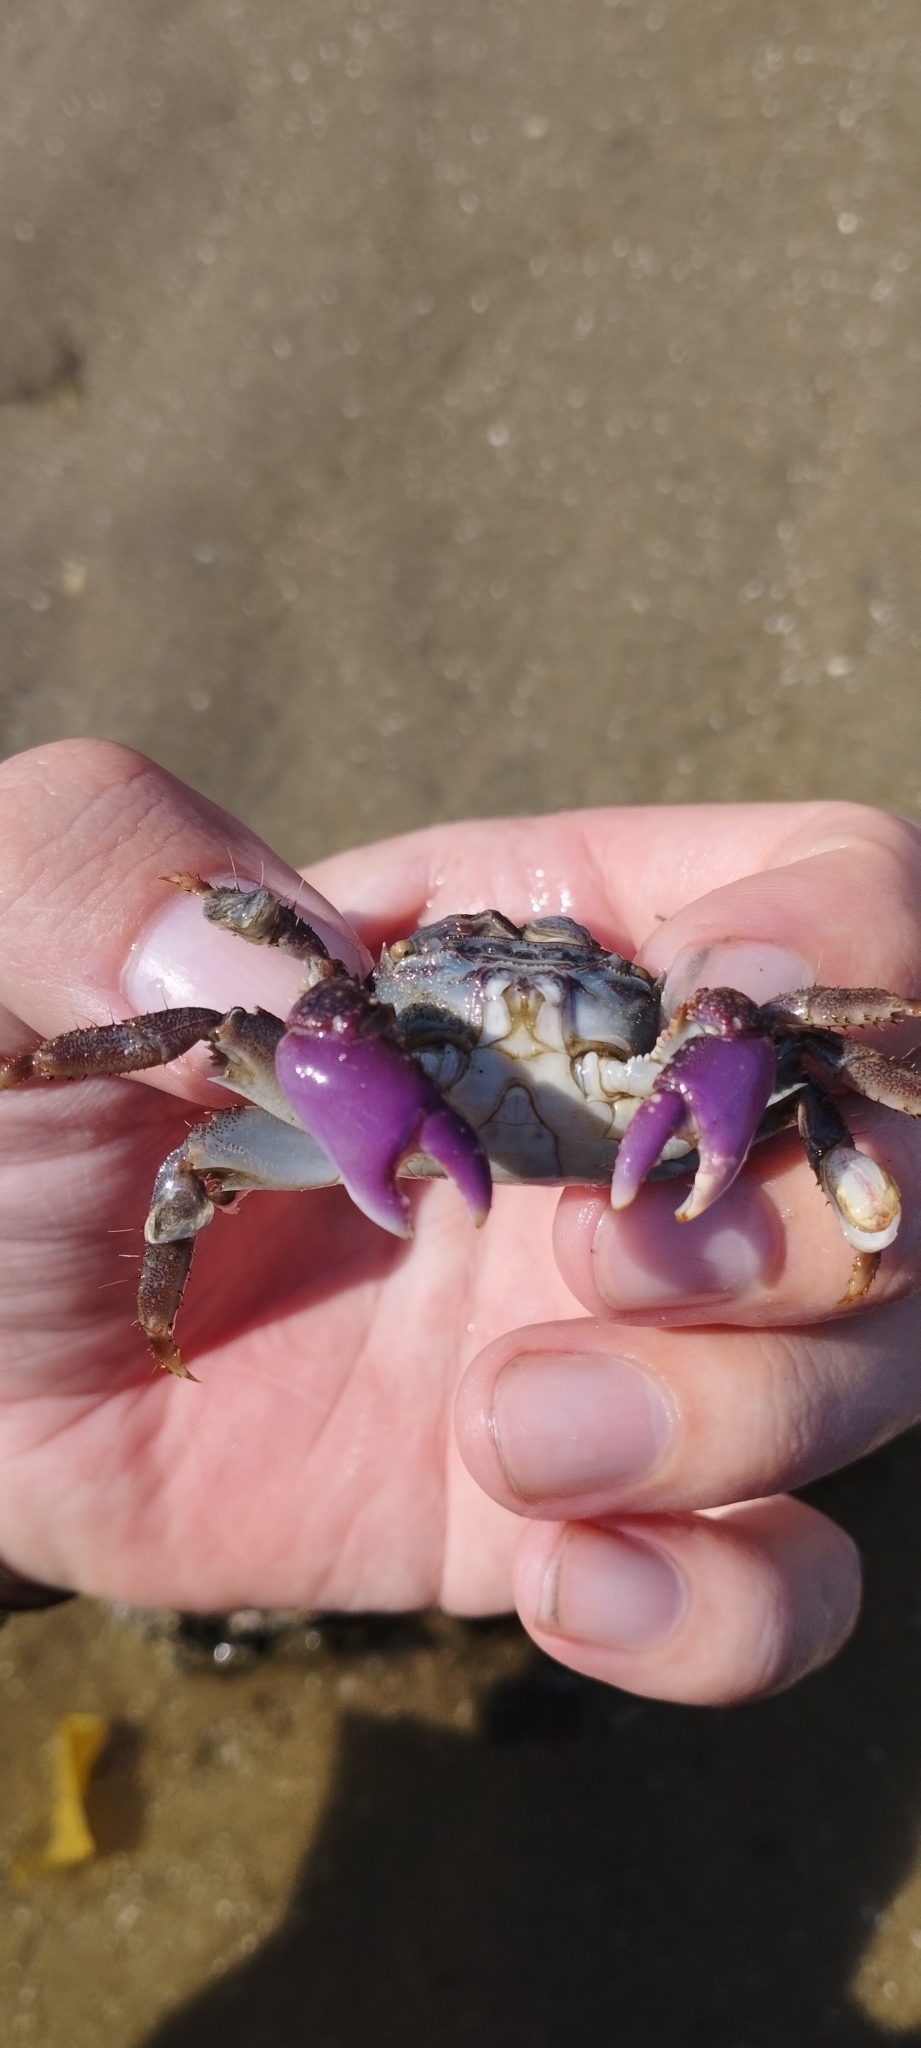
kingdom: Animalia
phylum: Arthropoda
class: Malacostraca
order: Decapoda
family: Grapsidae
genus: Metopograpsus
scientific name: Metopograpsus frontalis
